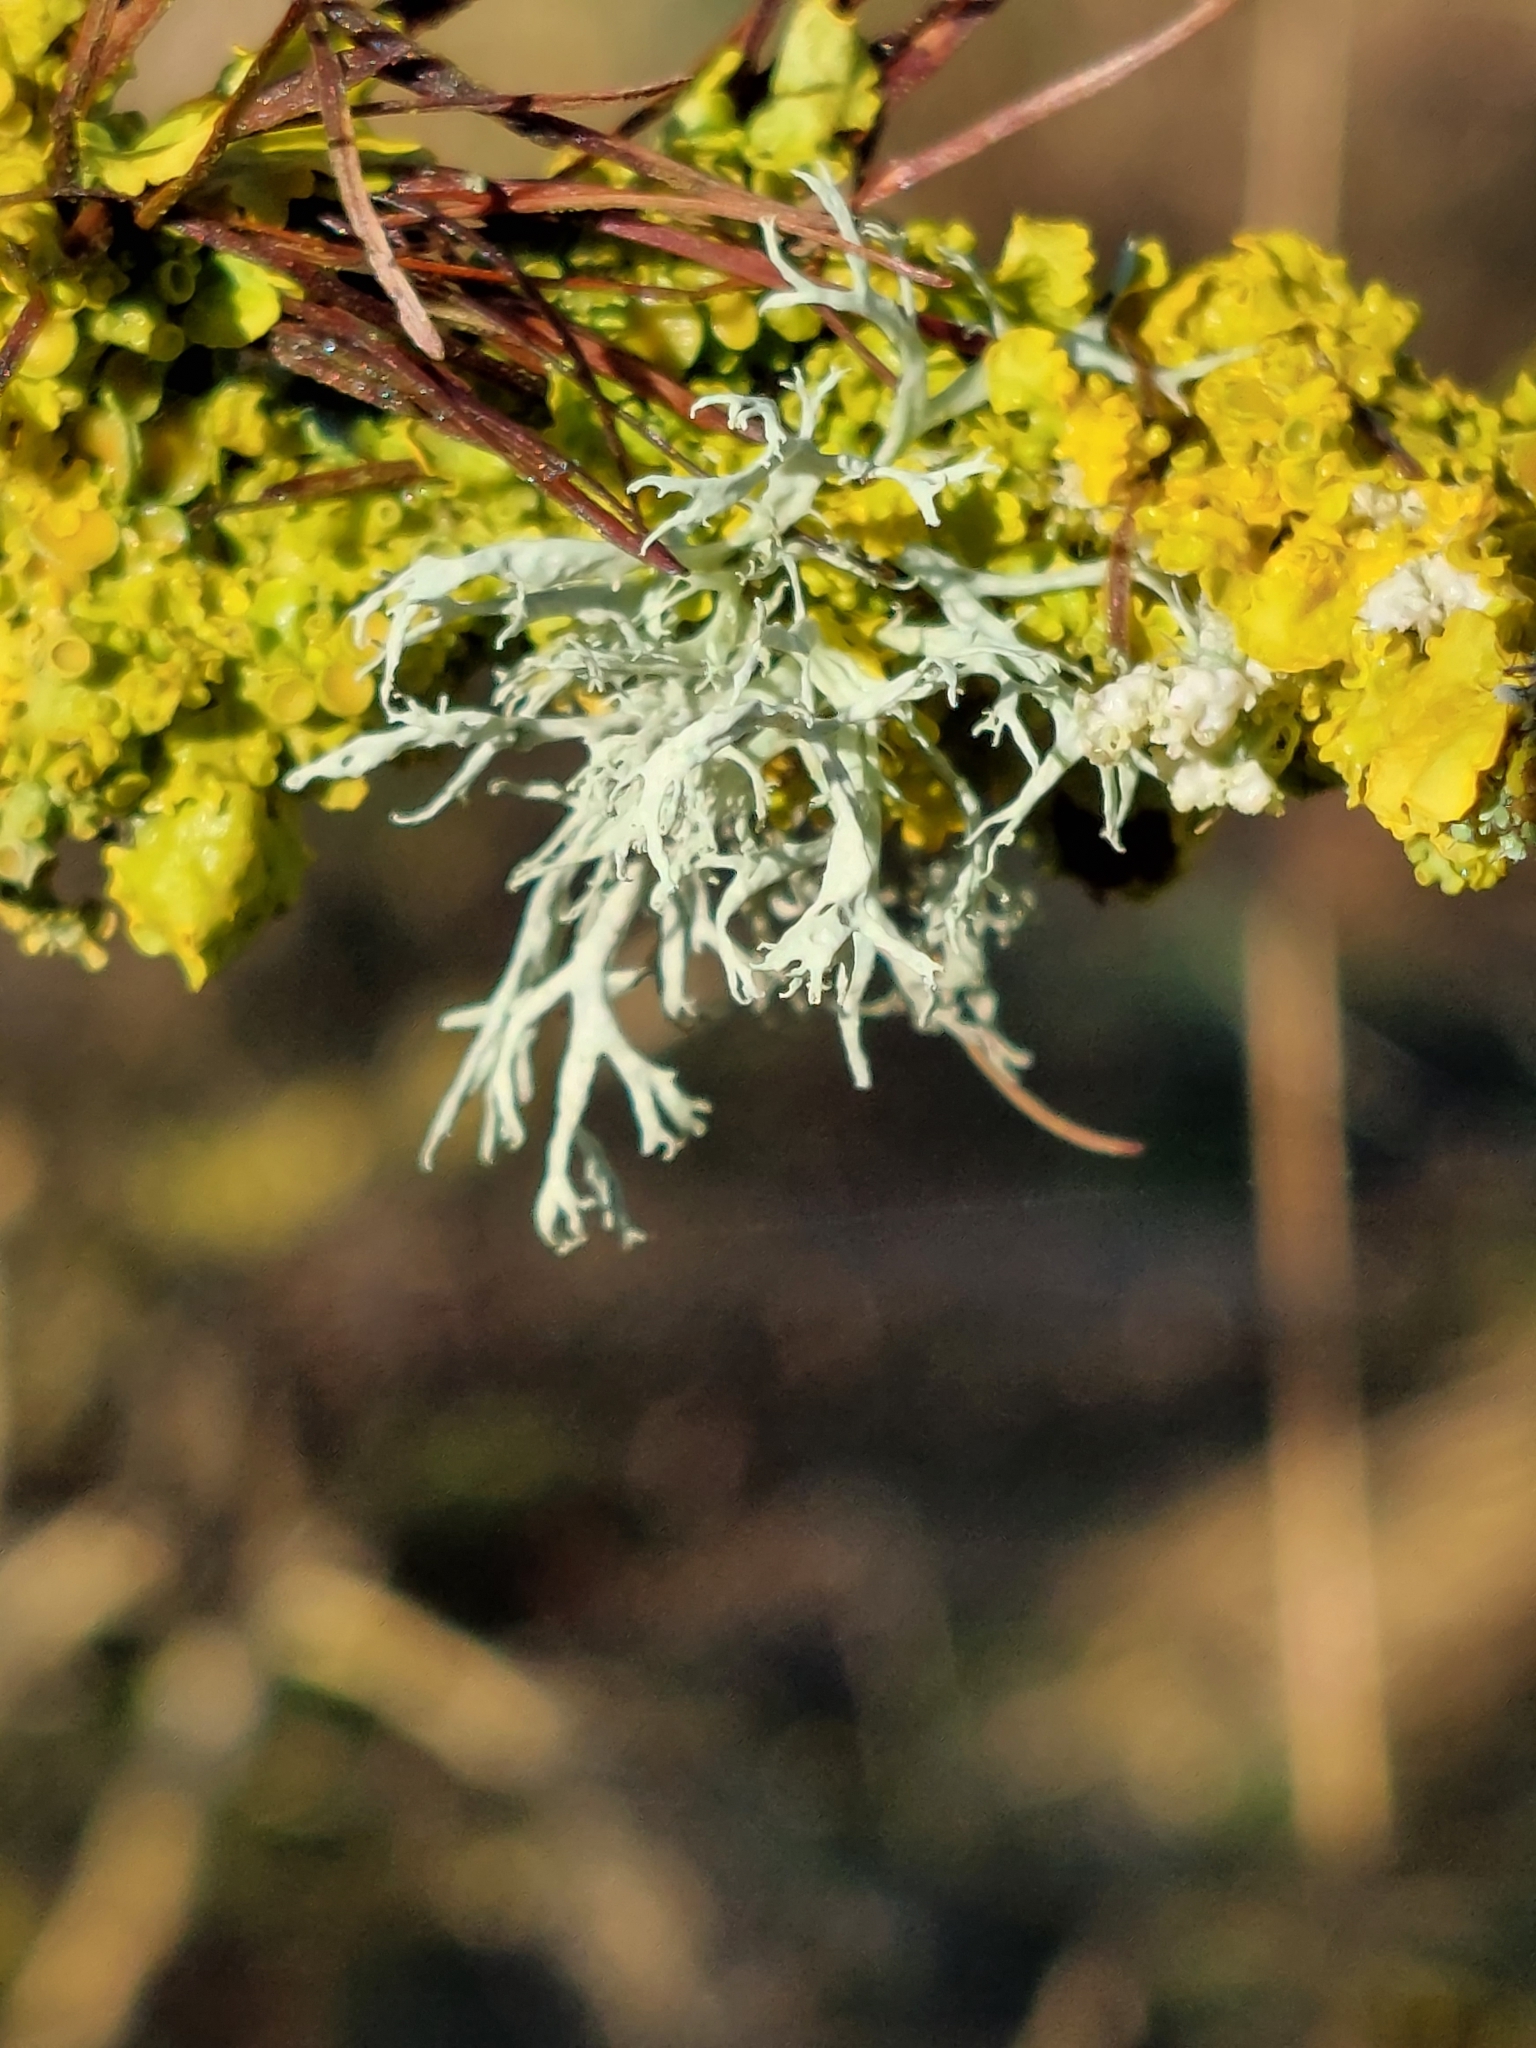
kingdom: Fungi
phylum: Ascomycota
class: Lecanoromycetes
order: Lecanorales
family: Ramalinaceae
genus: Ramalina
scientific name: Ramalina farinacea
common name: Farinose cartilage lichen
